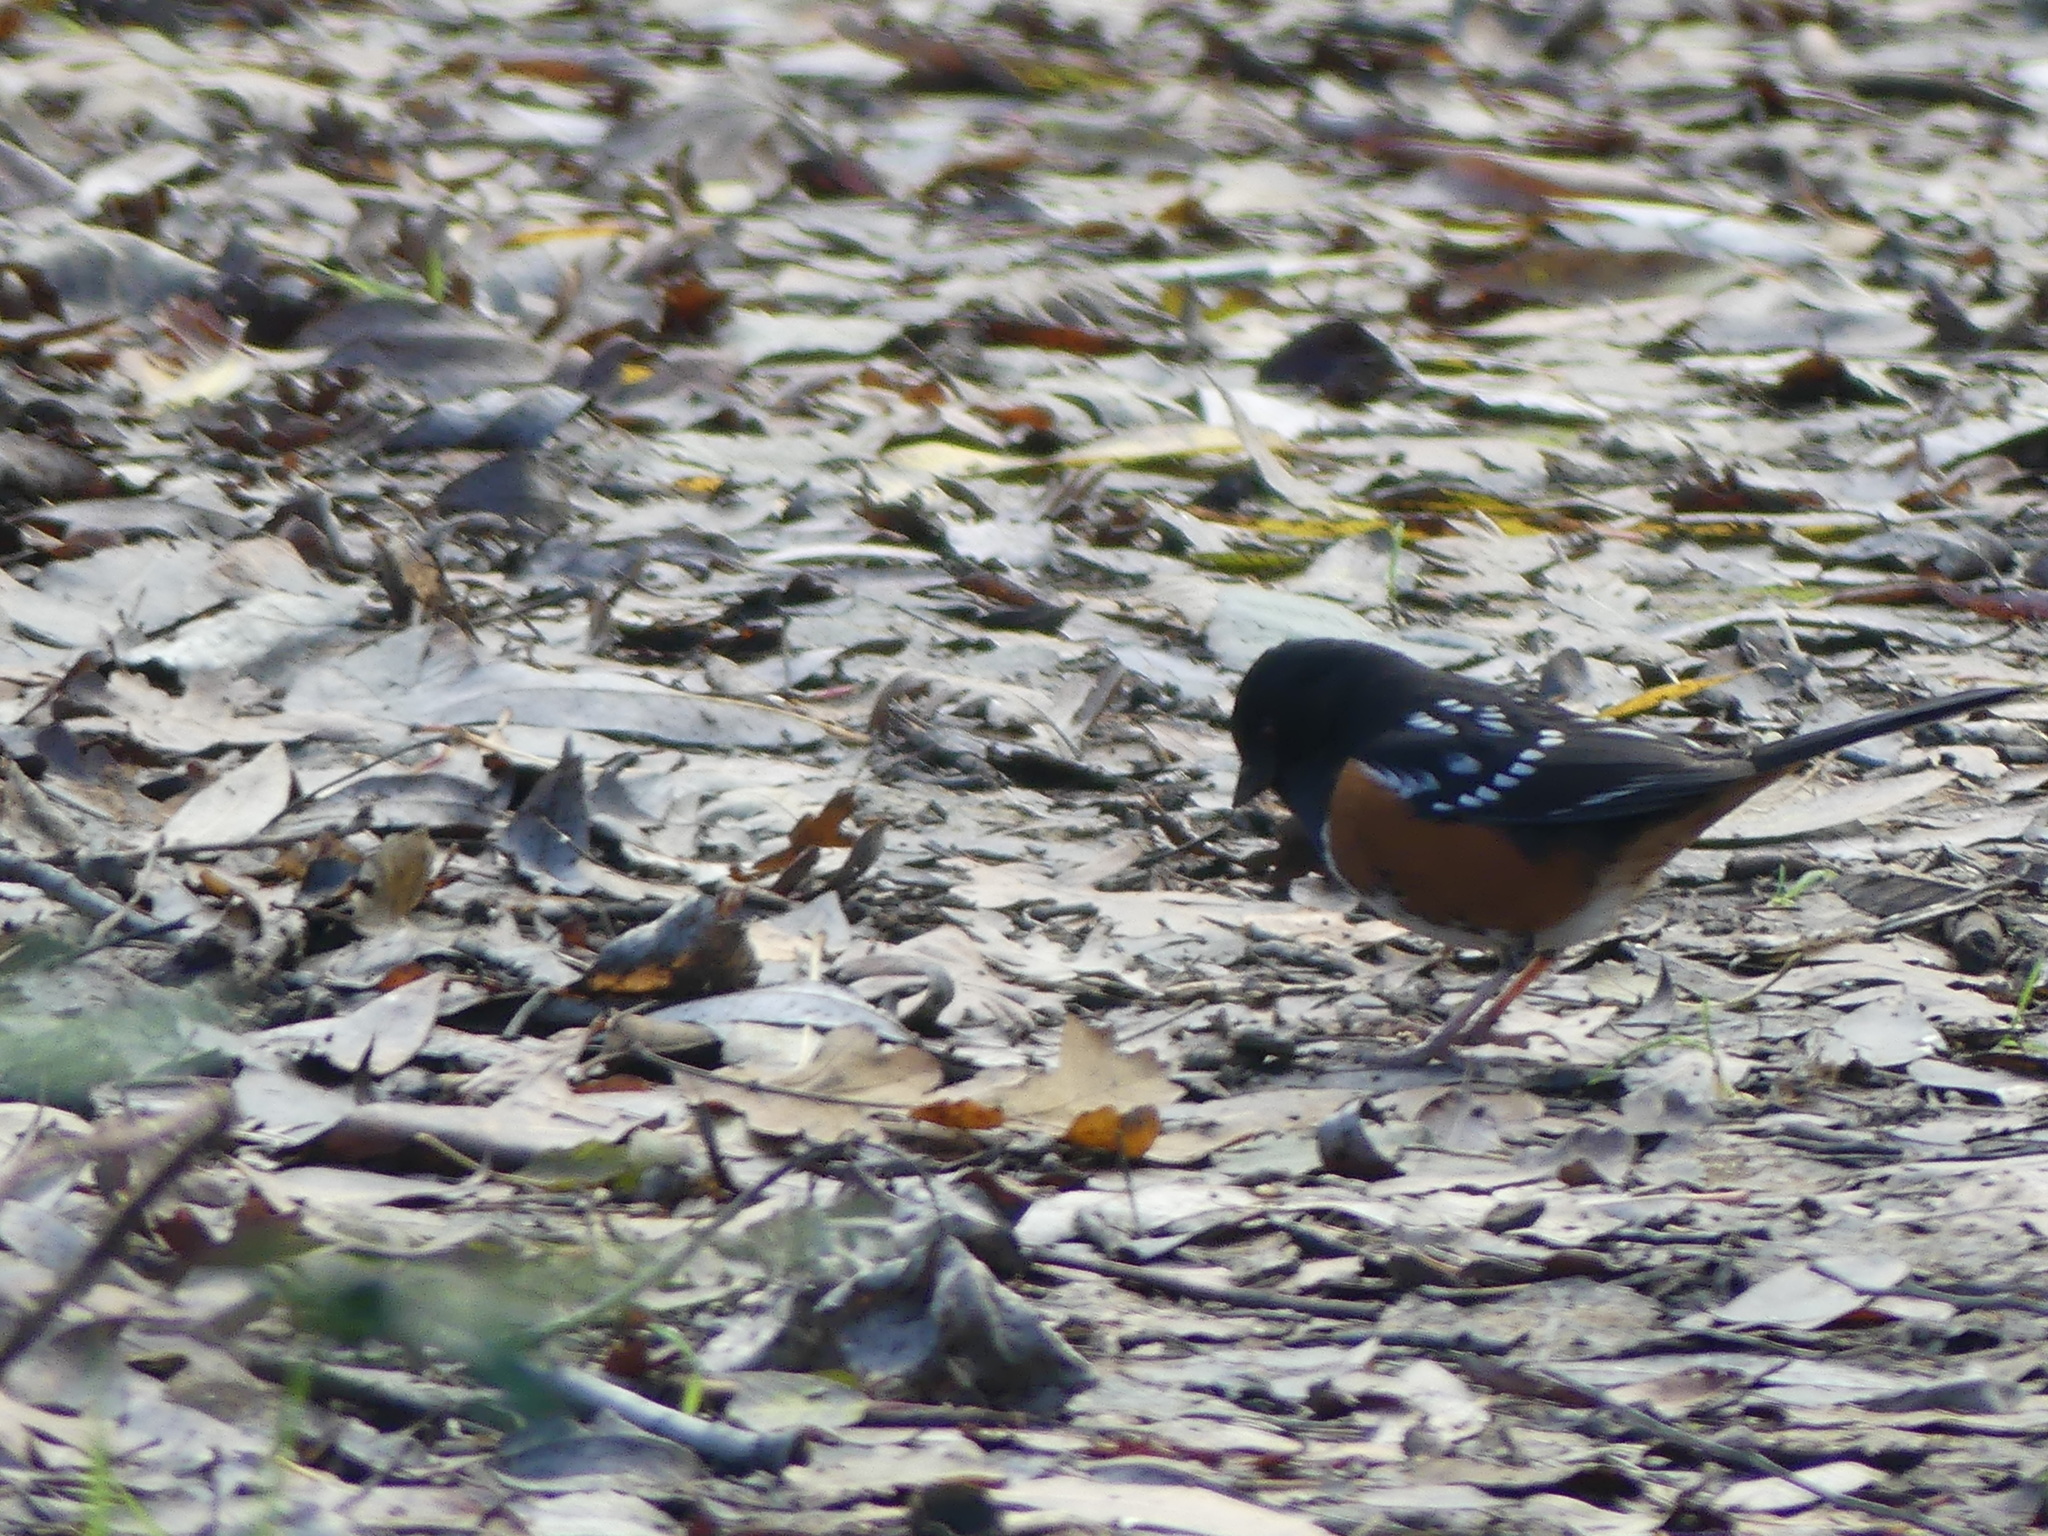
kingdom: Animalia
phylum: Chordata
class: Aves
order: Passeriformes
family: Passerellidae
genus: Pipilo
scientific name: Pipilo maculatus
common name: Spotted towhee
